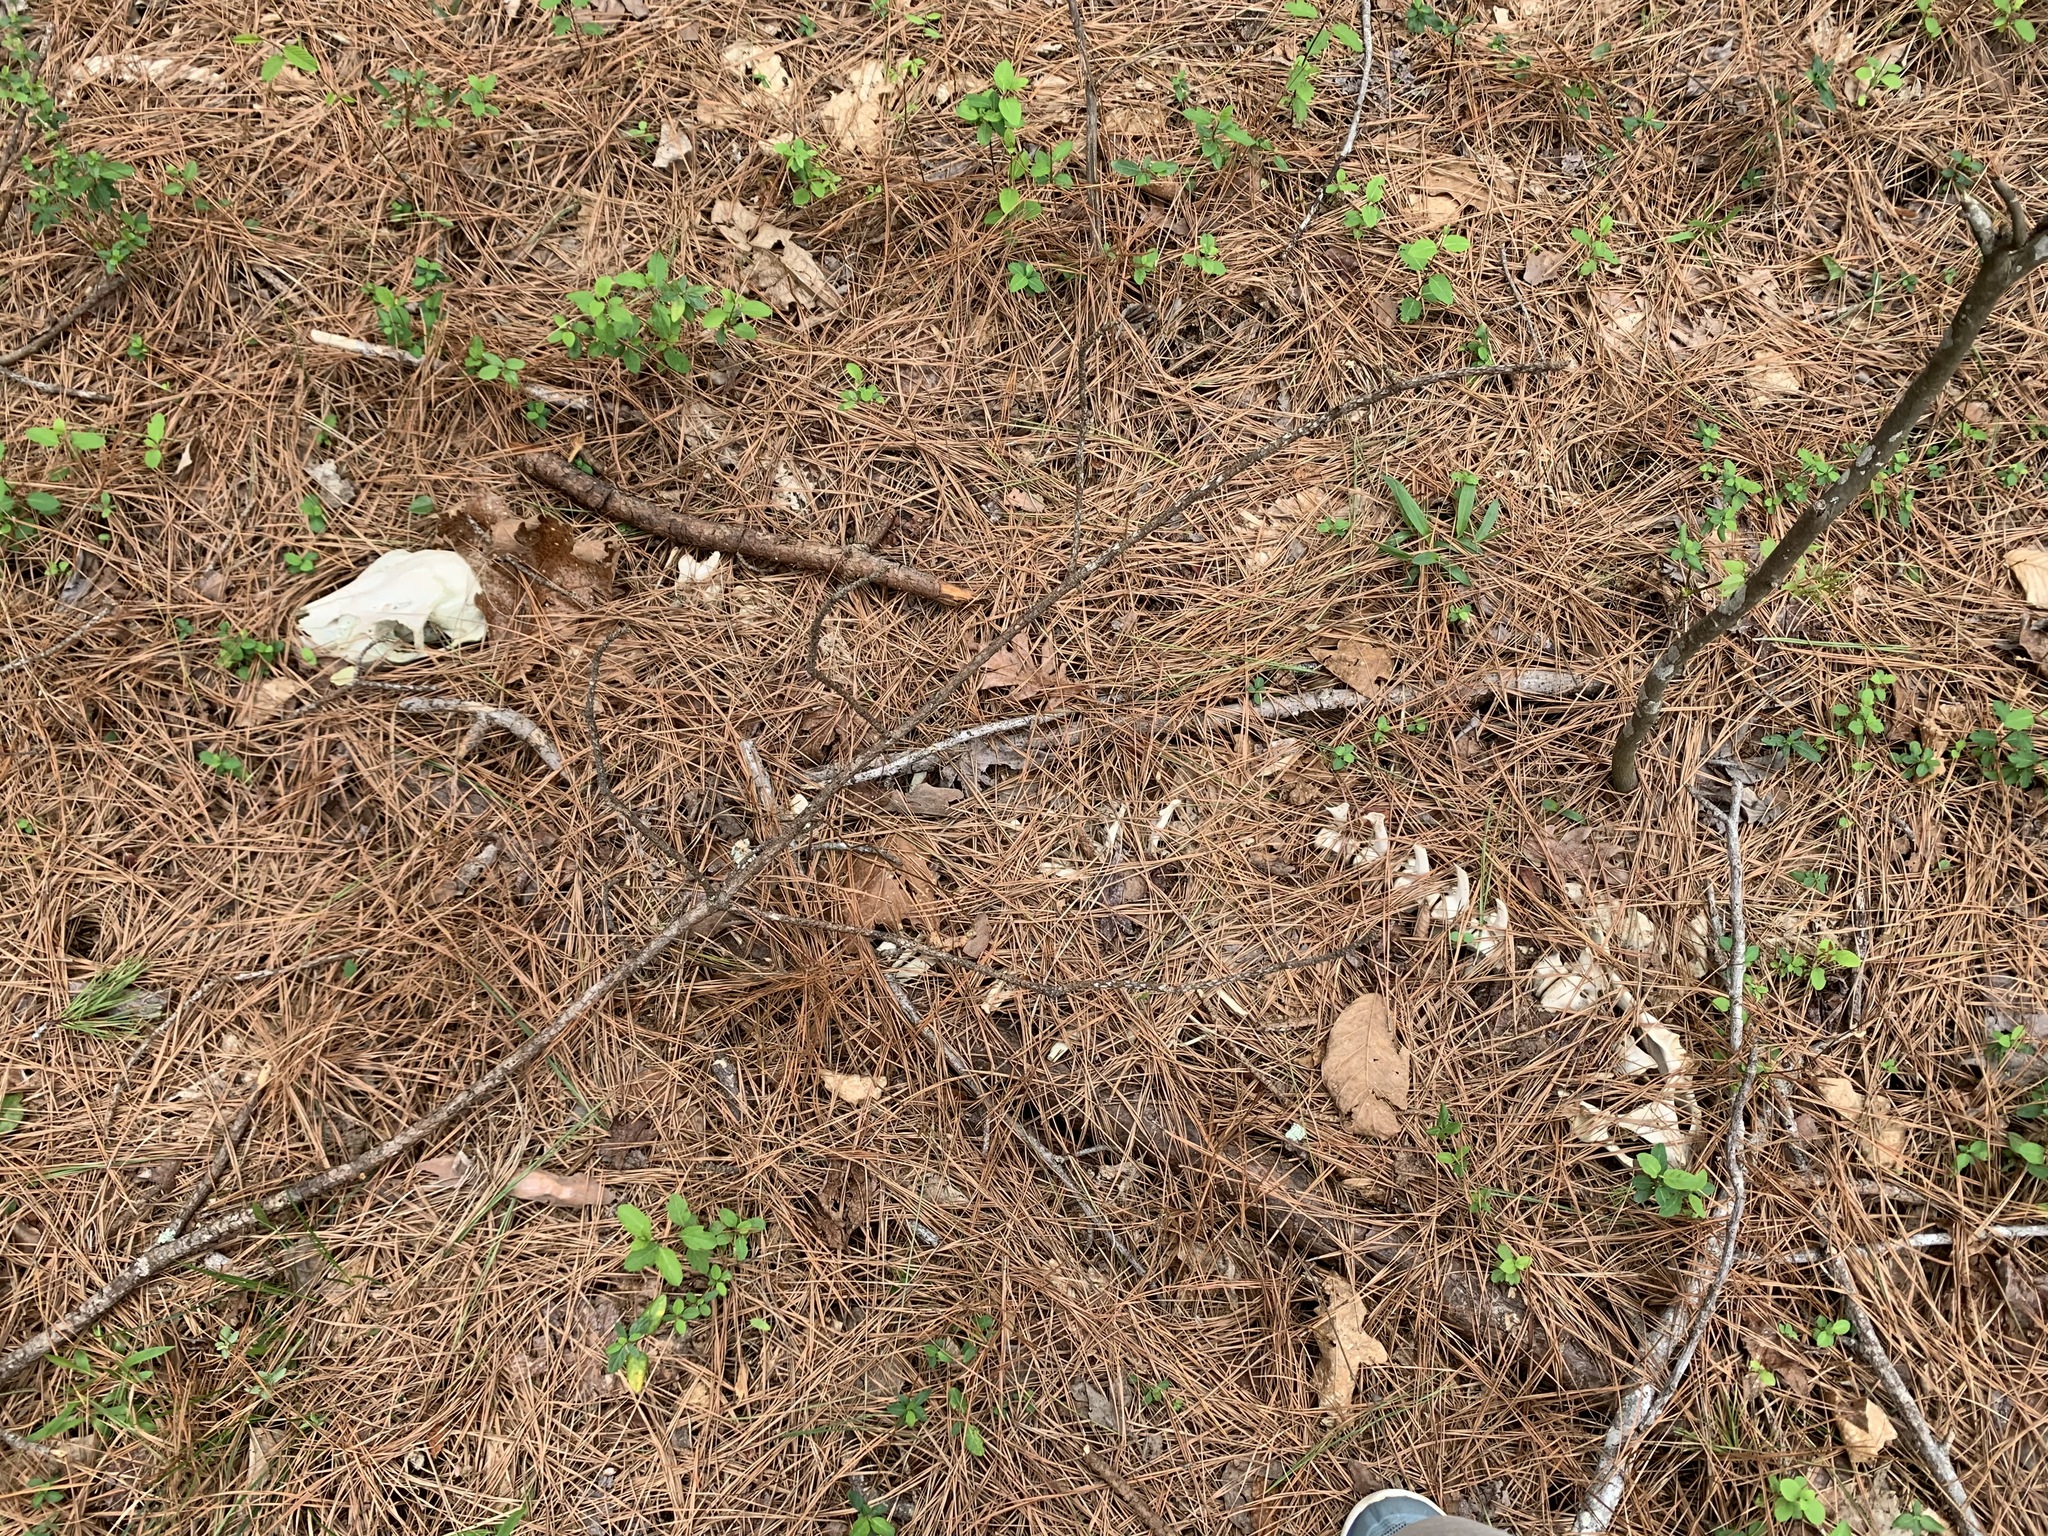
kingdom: Animalia
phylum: Chordata
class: Mammalia
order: Artiodactyla
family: Cervidae
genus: Odocoileus
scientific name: Odocoileus virginianus
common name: White-tailed deer
